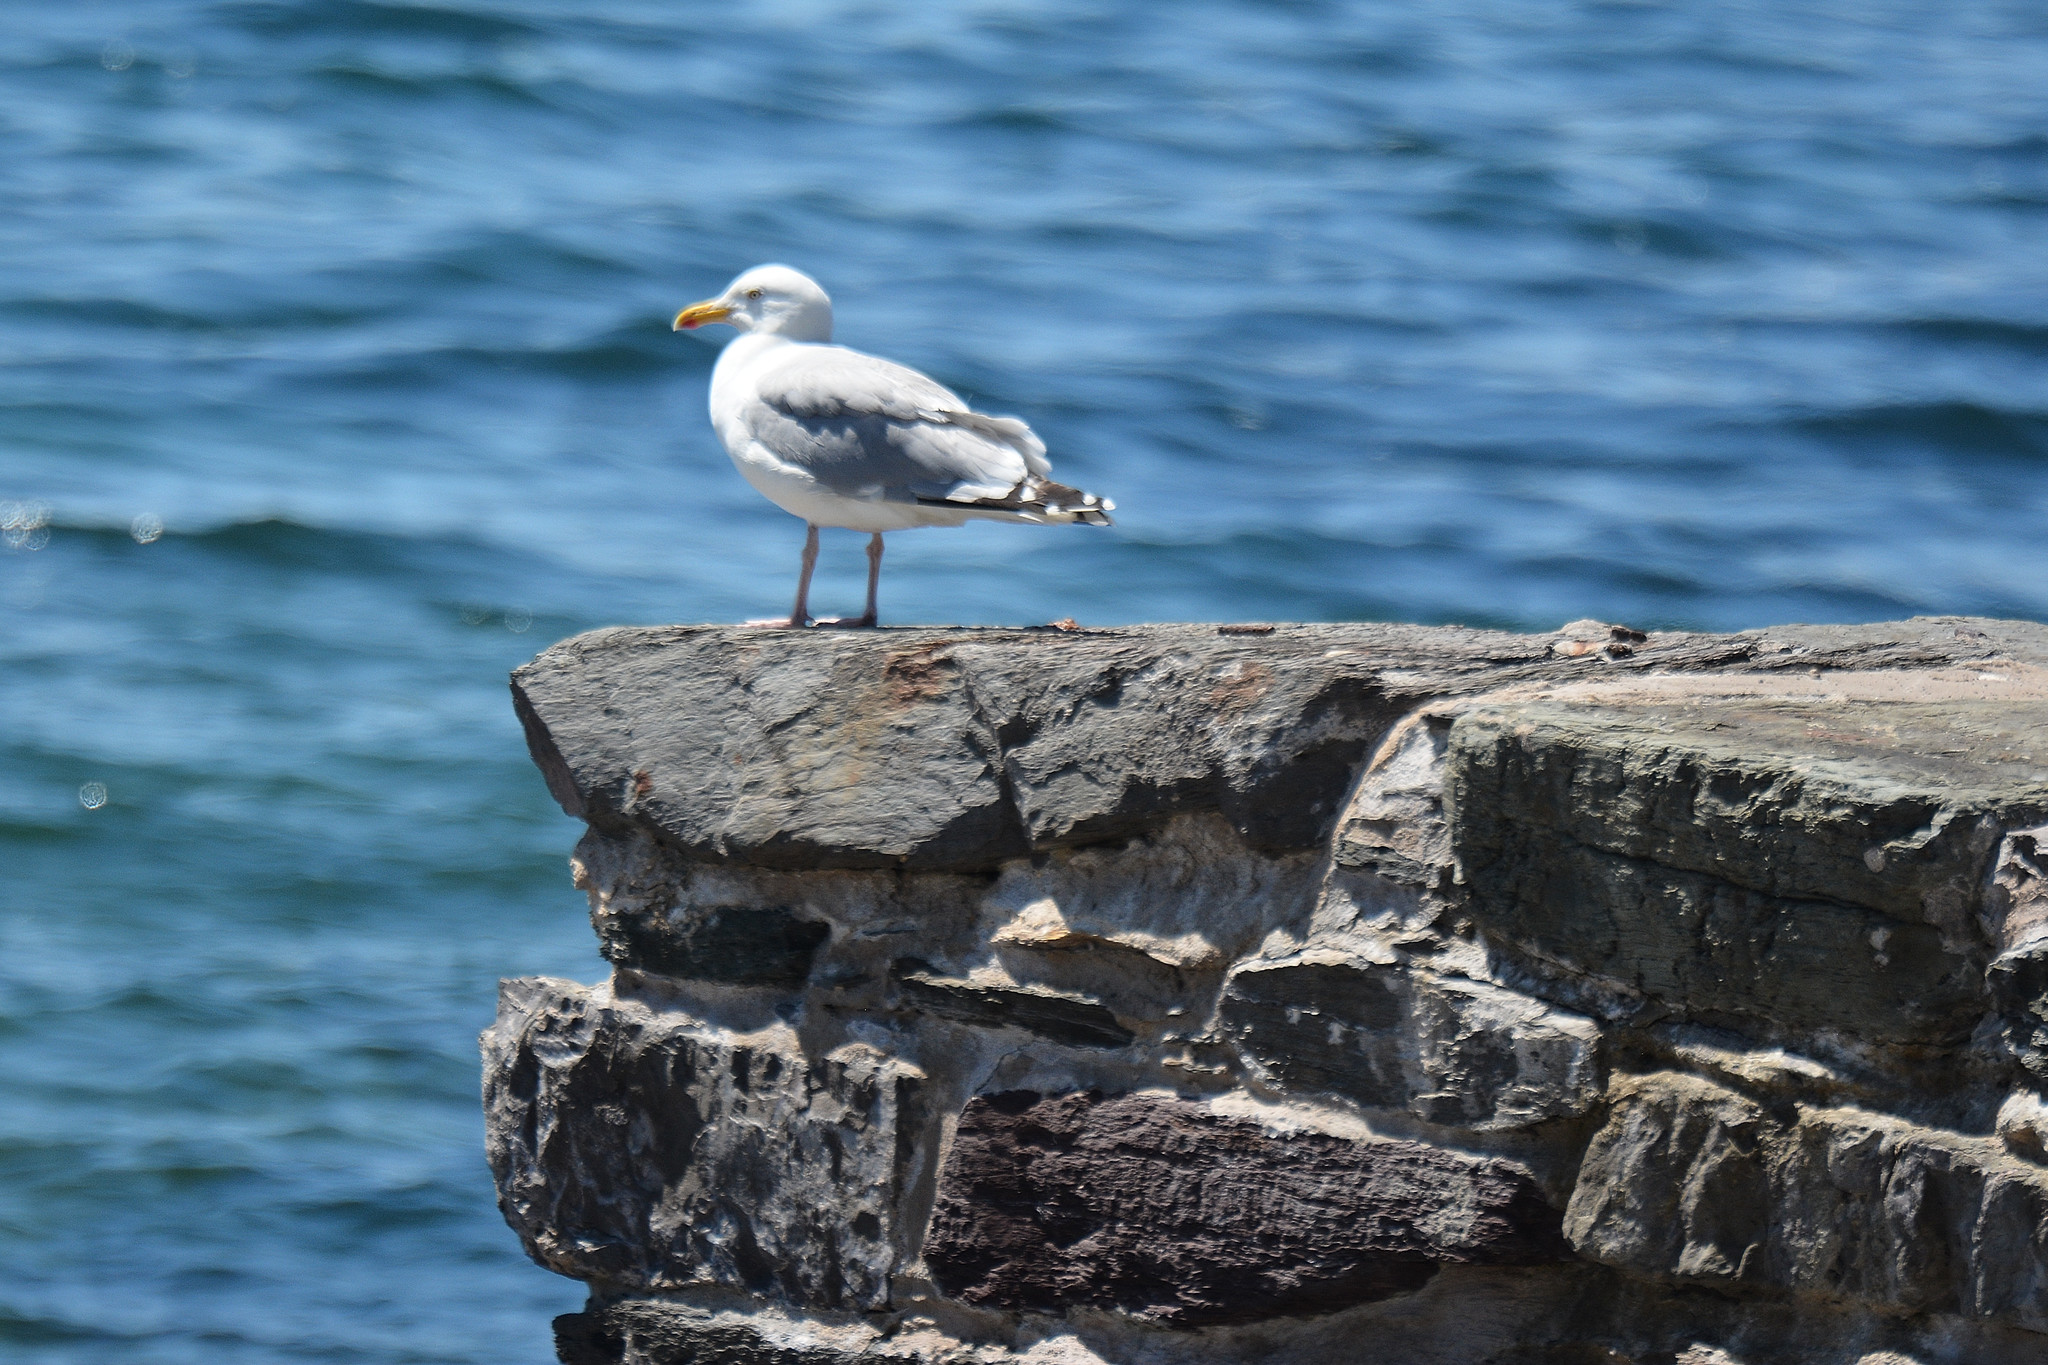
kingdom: Animalia
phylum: Chordata
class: Aves
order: Charadriiformes
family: Laridae
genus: Larus
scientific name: Larus argentatus
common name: Herring gull
